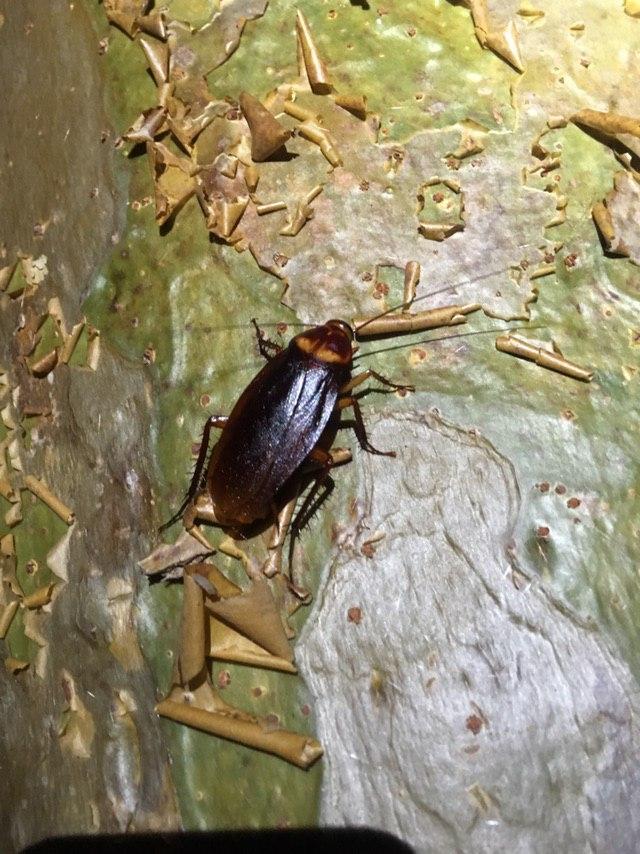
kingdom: Animalia
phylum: Arthropoda
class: Insecta
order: Blattodea
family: Blattidae
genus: Periplaneta
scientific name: Periplaneta americana
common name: American cockroach
